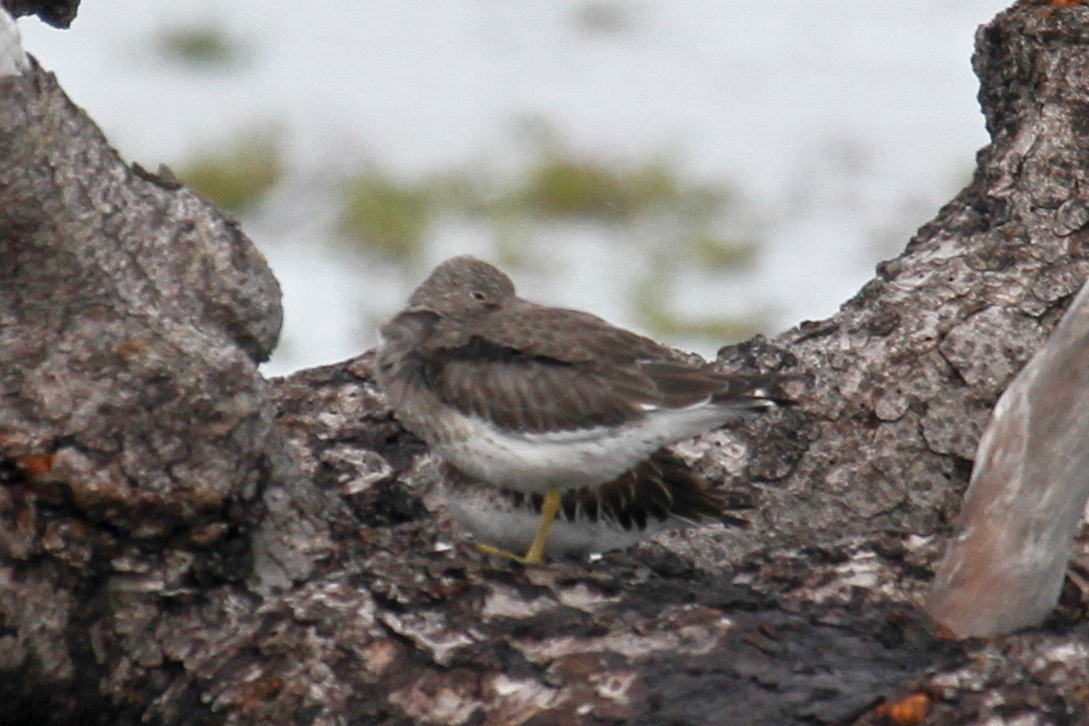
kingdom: Animalia
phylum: Chordata
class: Aves
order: Charadriiformes
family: Scolopacidae
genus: Calidris
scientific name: Calidris virgata
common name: Surfbird
